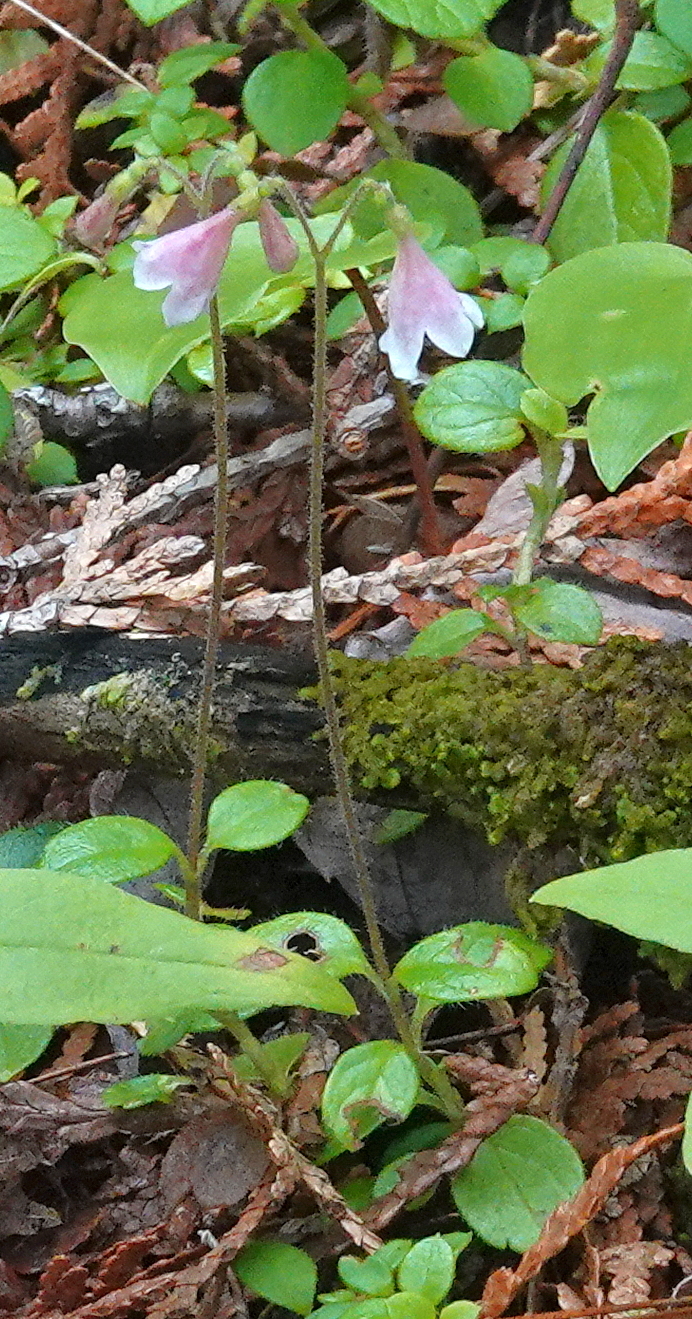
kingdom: Plantae
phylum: Tracheophyta
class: Magnoliopsida
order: Dipsacales
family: Caprifoliaceae
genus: Linnaea
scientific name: Linnaea borealis
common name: Twinflower
